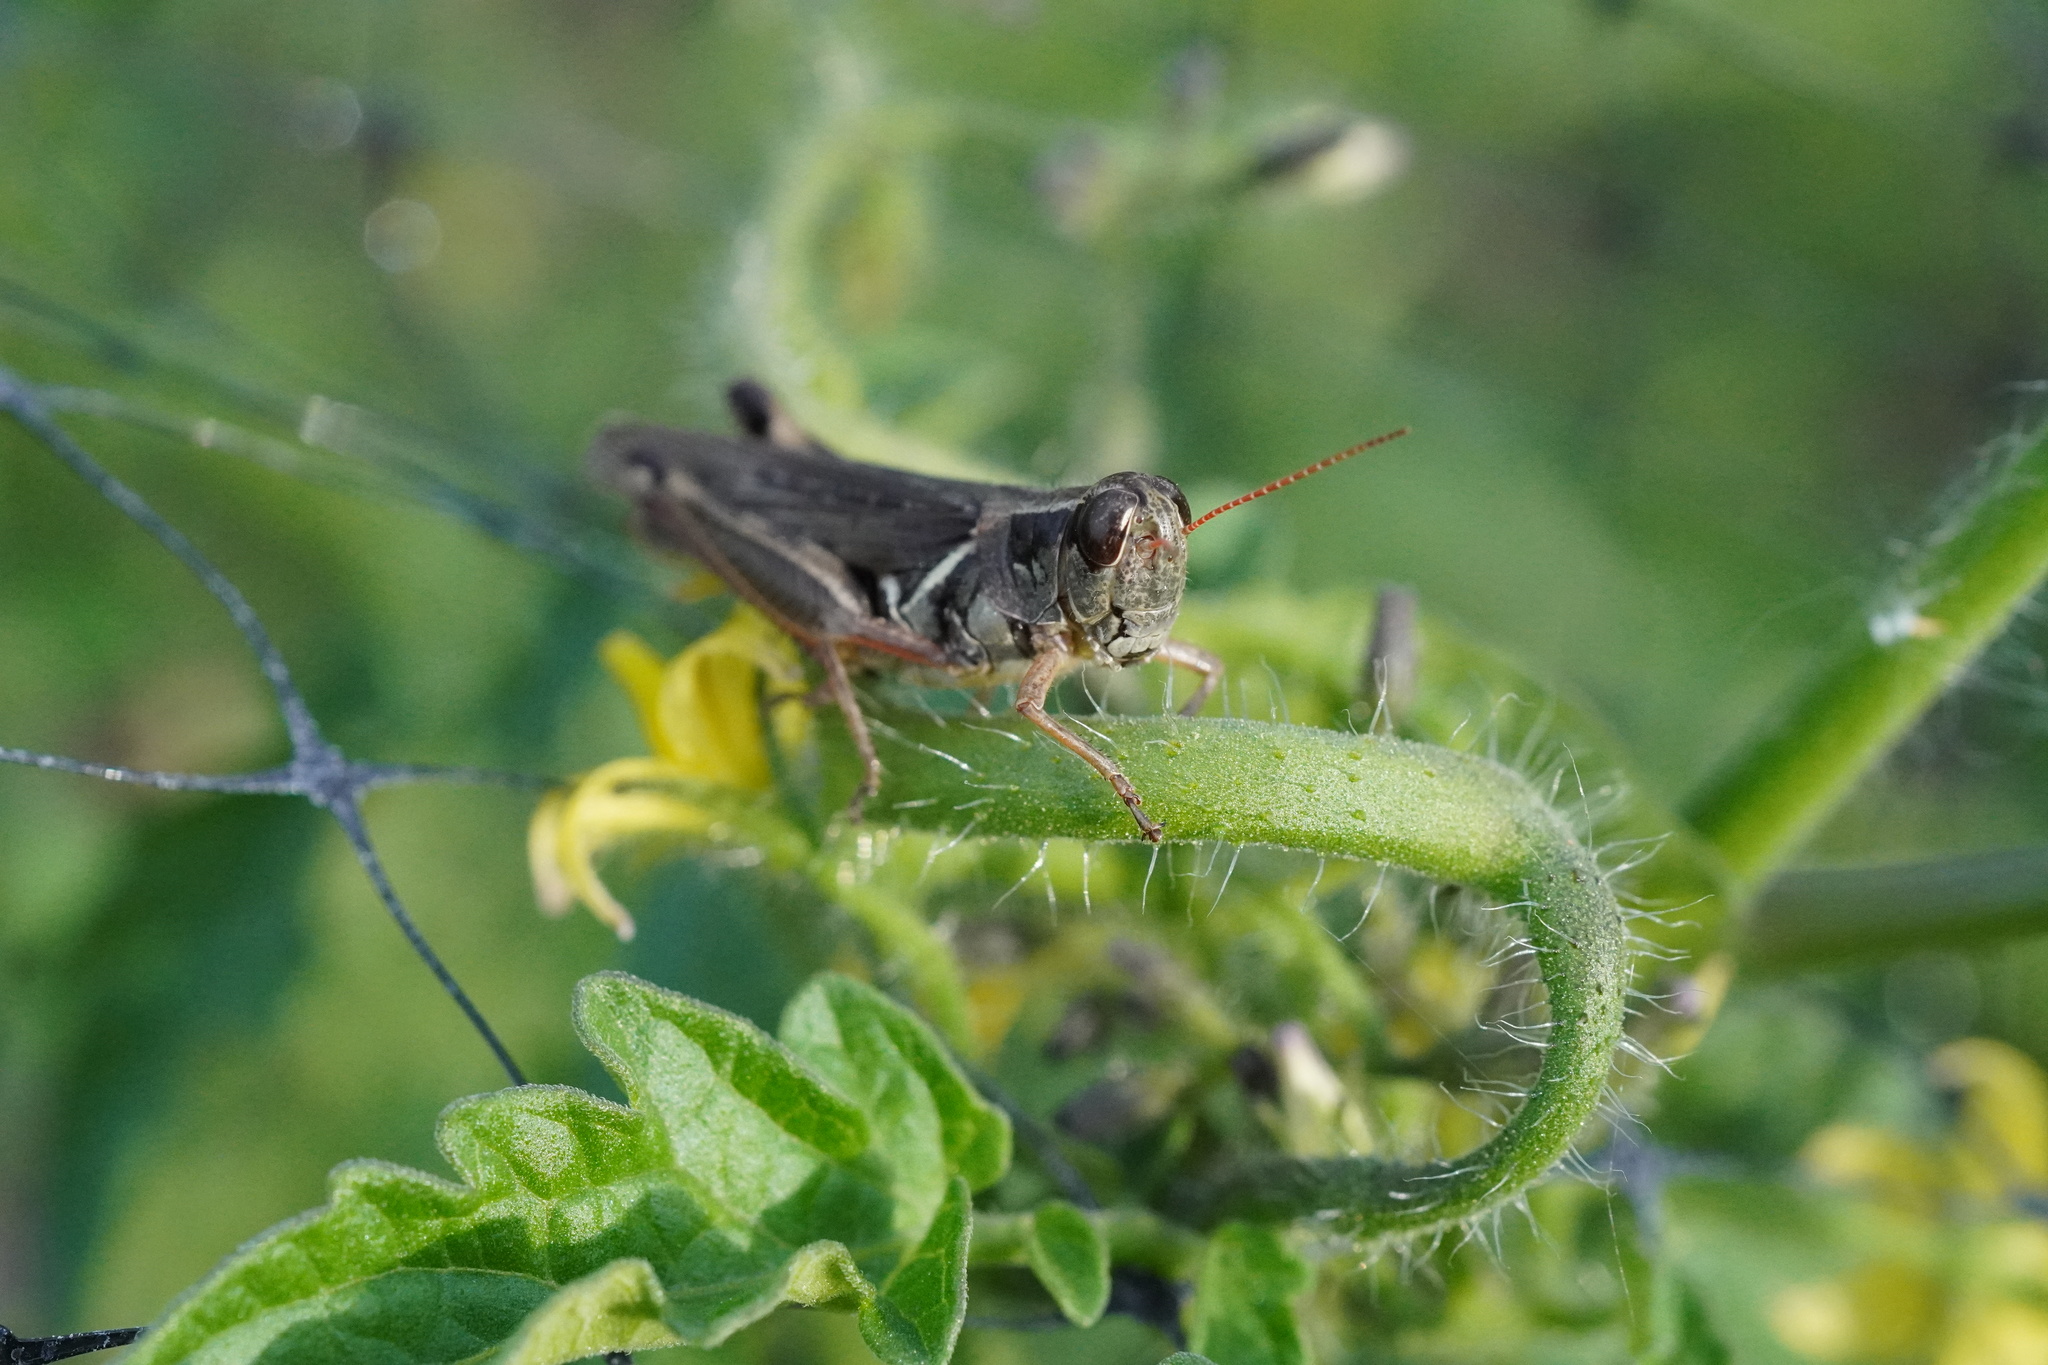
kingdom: Animalia
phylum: Arthropoda
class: Insecta
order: Orthoptera
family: Acrididae
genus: Melanoplus
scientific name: Melanoplus femurrubrum
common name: Red-legged grasshopper
